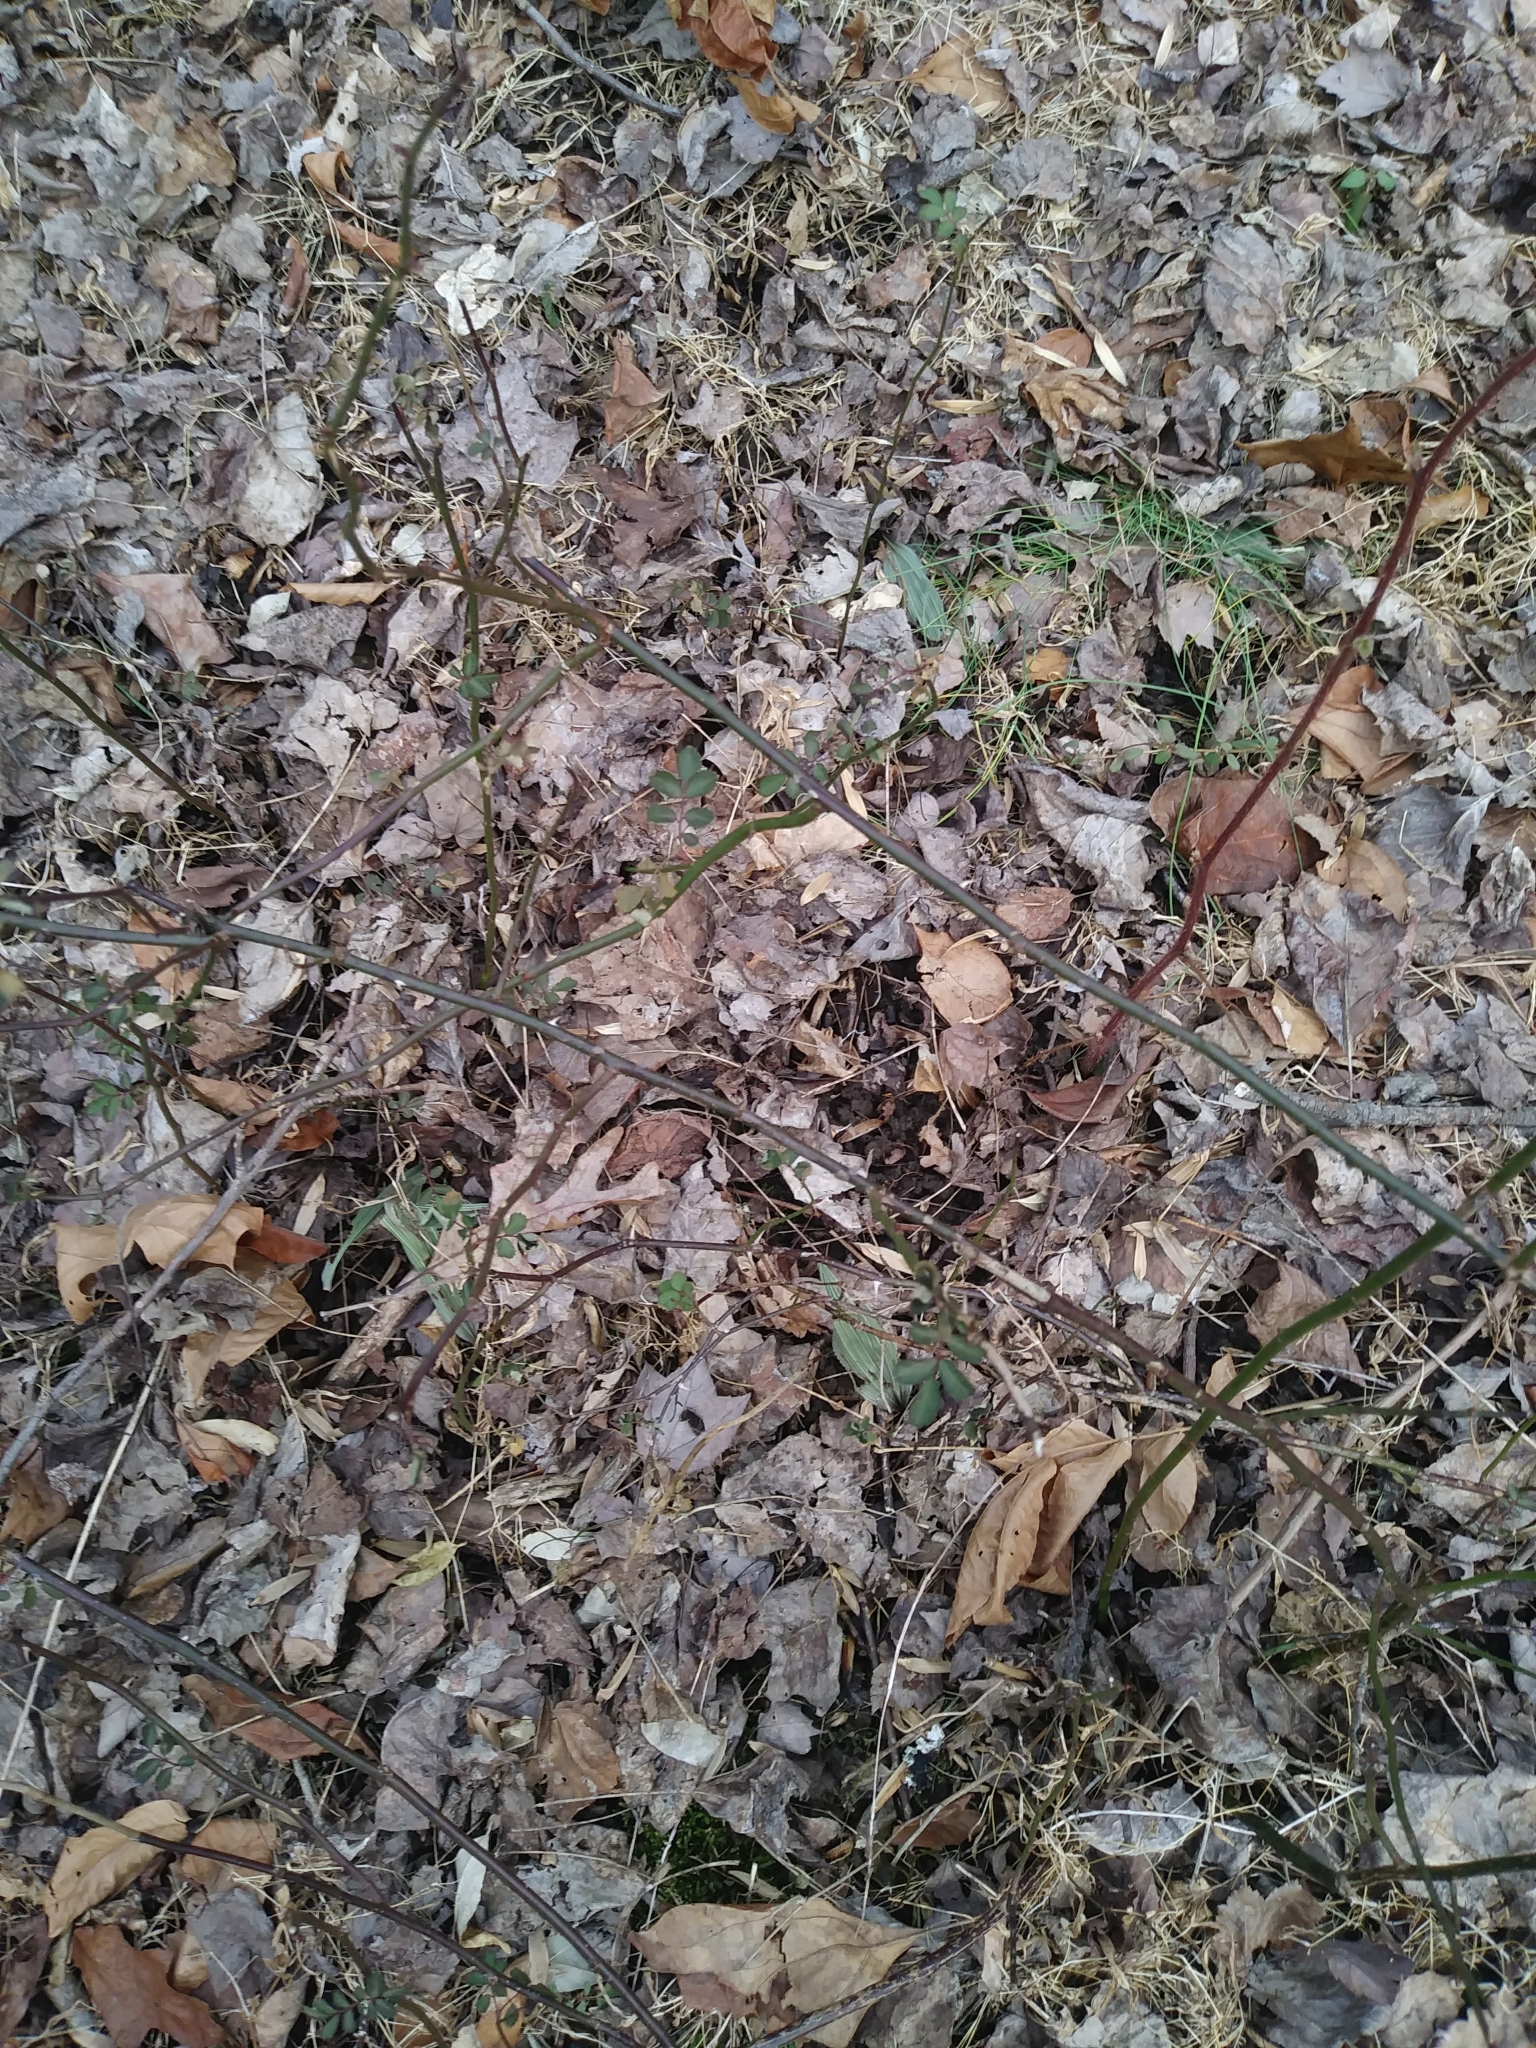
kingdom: Plantae
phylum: Tracheophyta
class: Liliopsida
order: Asparagales
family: Orchidaceae
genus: Aplectrum
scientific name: Aplectrum hyemale
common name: Adam-and-eve
